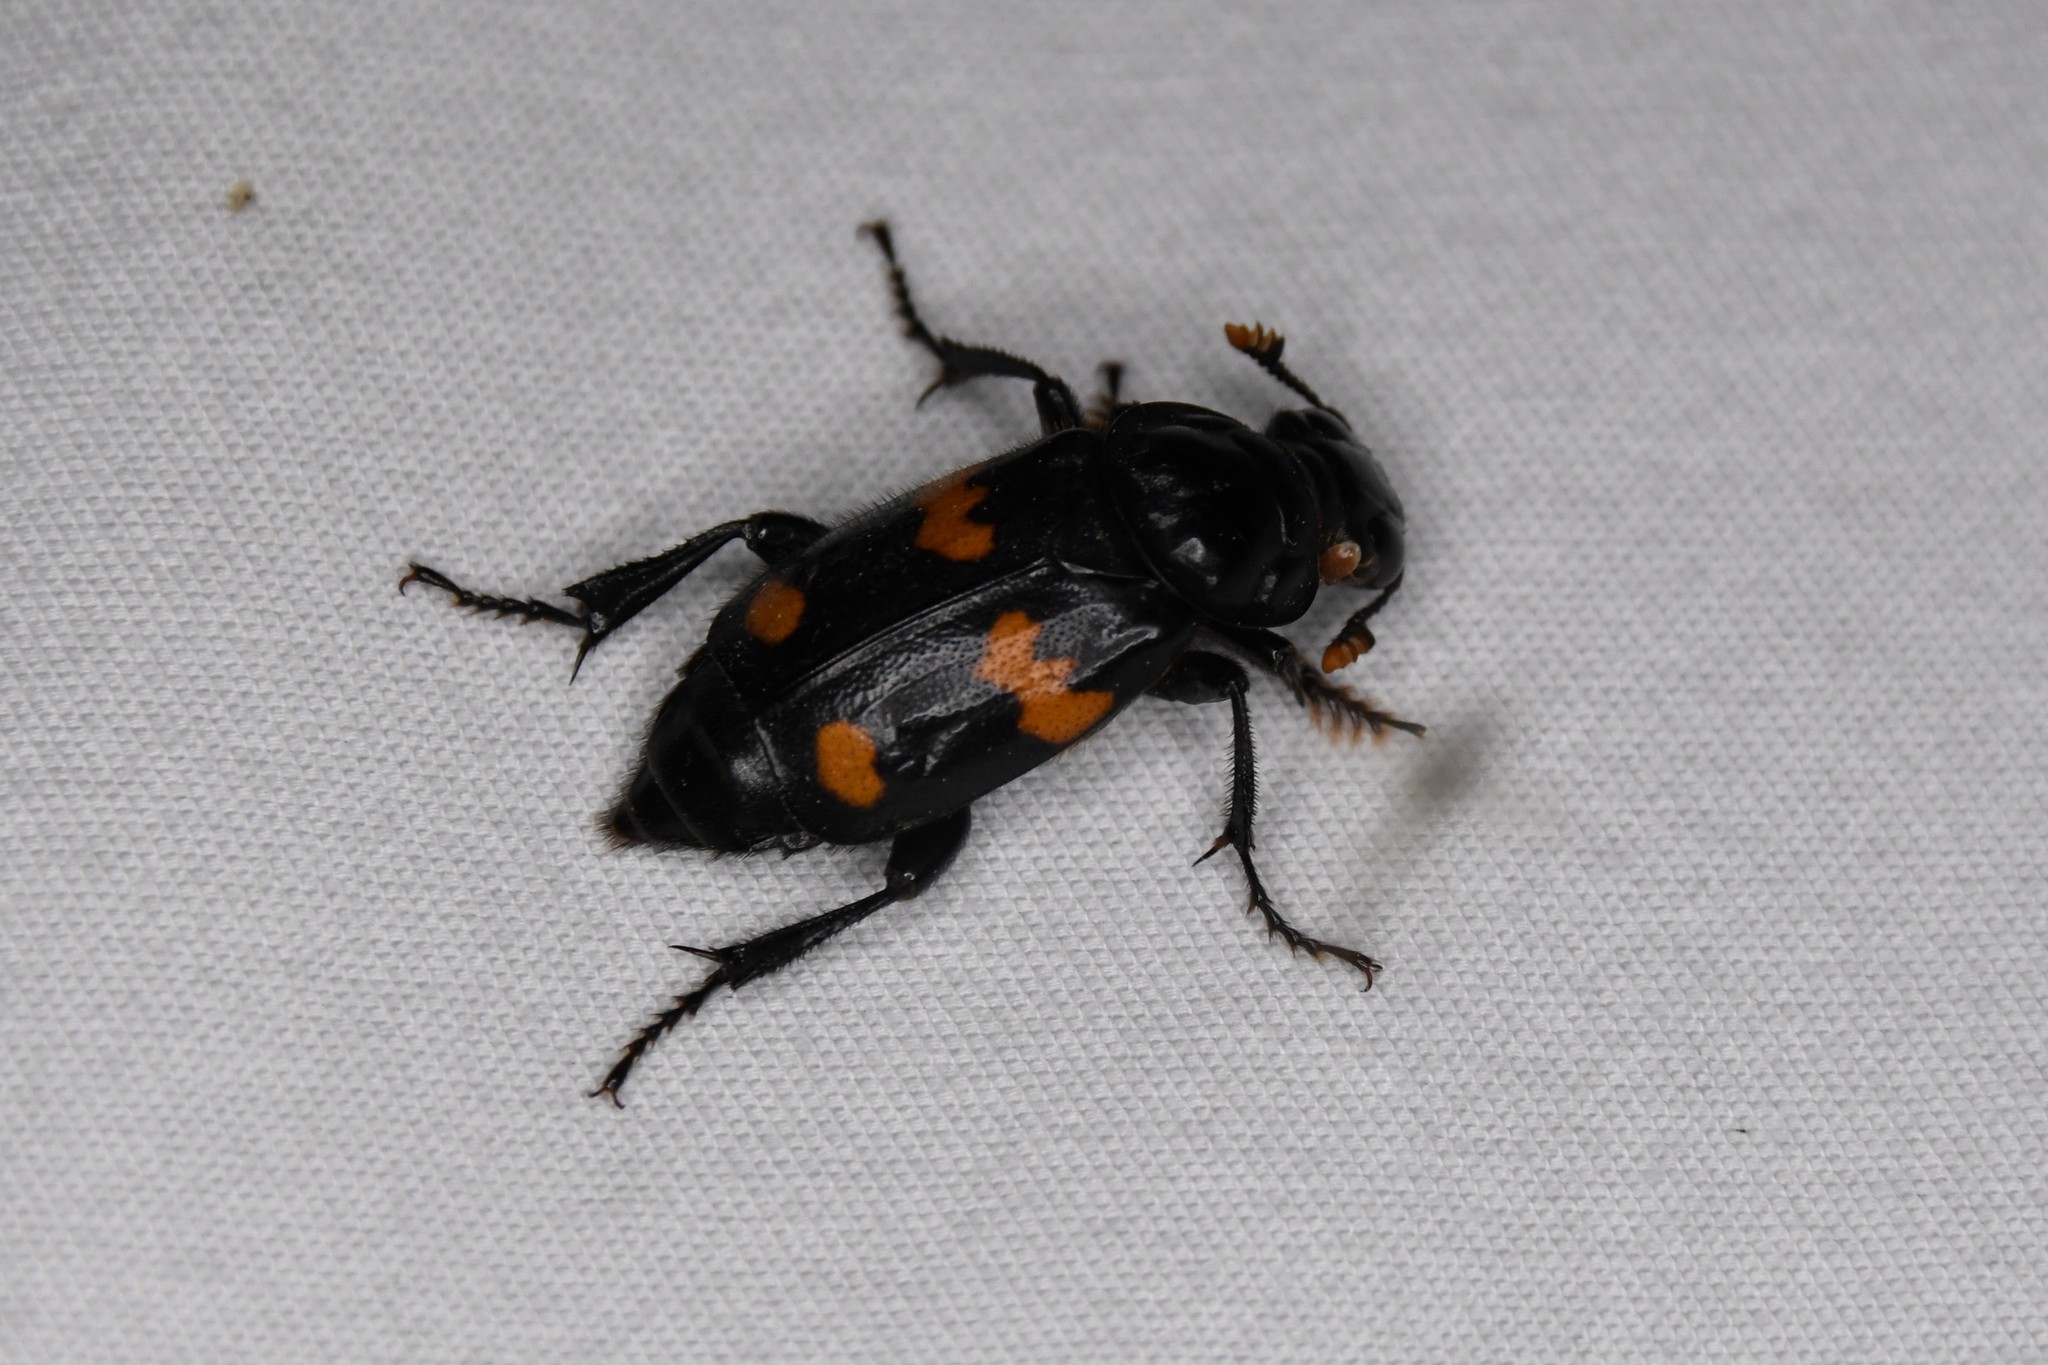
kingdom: Animalia
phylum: Arthropoda
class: Insecta
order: Coleoptera
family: Staphylinidae
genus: Nicrophorus
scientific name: Nicrophorus orbicollis
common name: Roundneck sexton beetle
